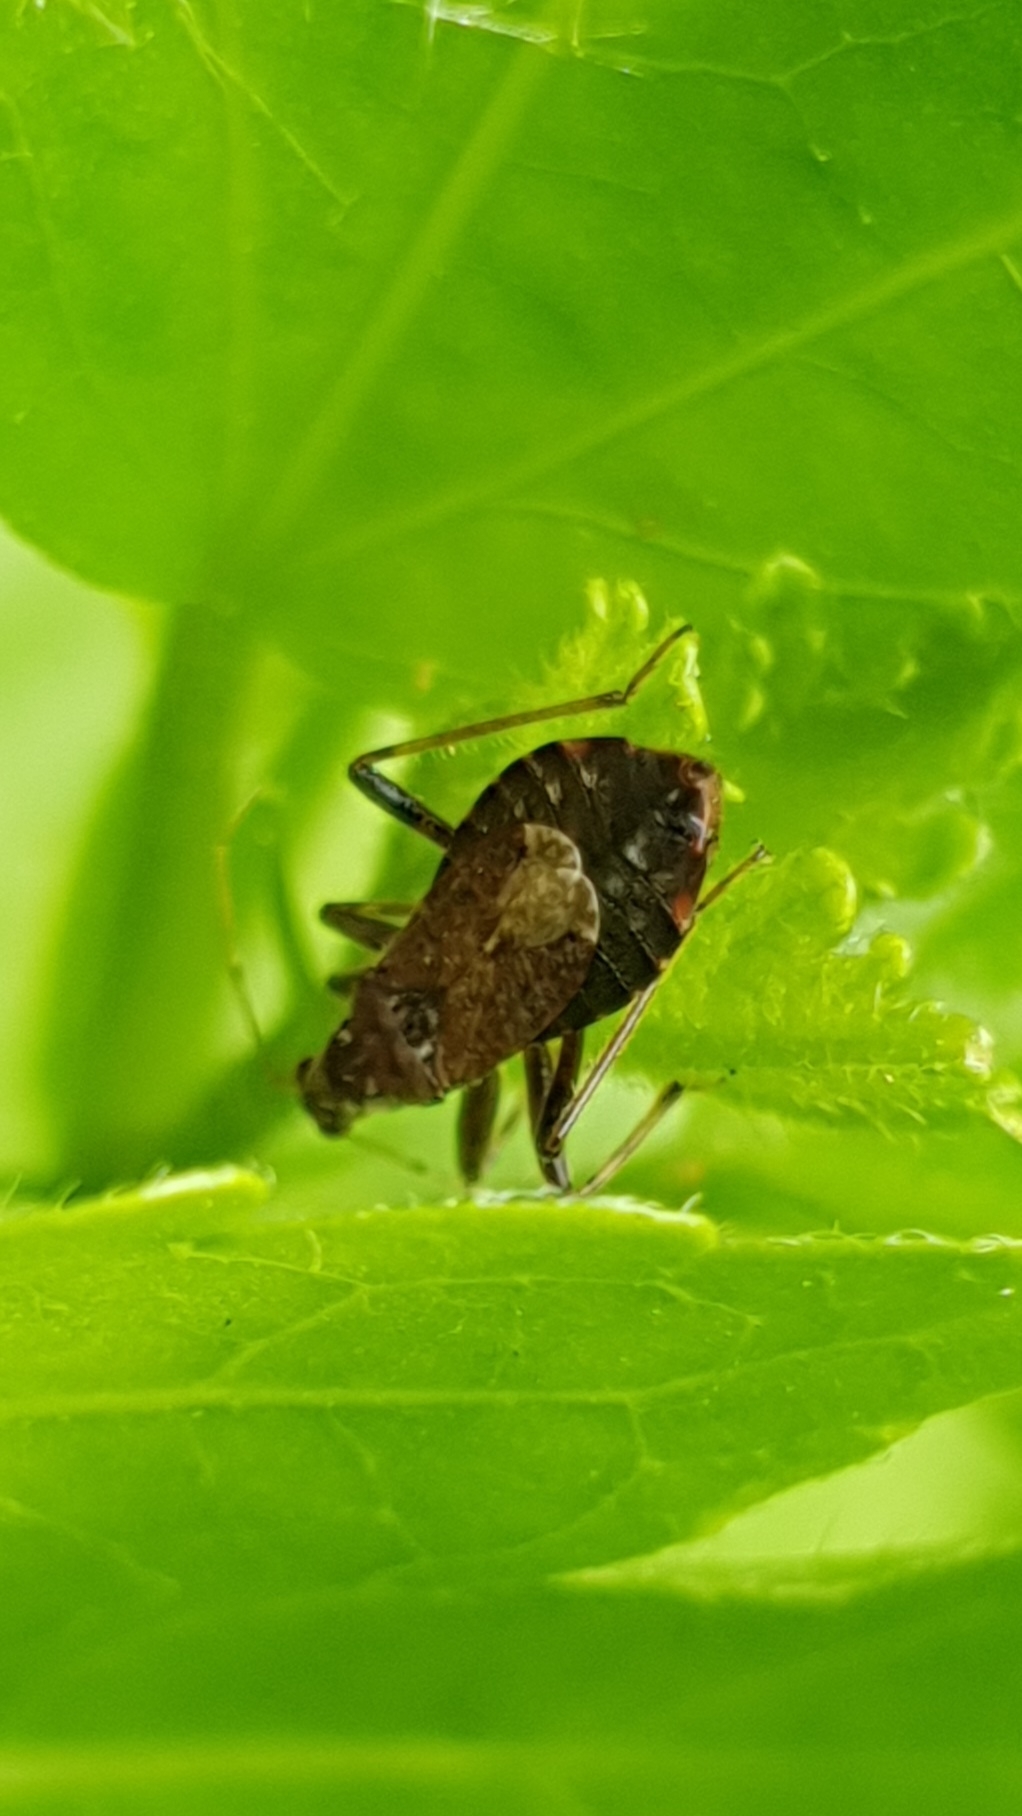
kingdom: Animalia
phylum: Arthropoda
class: Insecta
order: Hemiptera
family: Nabidae
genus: Himacerus
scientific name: Himacerus mirmicoides
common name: Ant damsel bug
